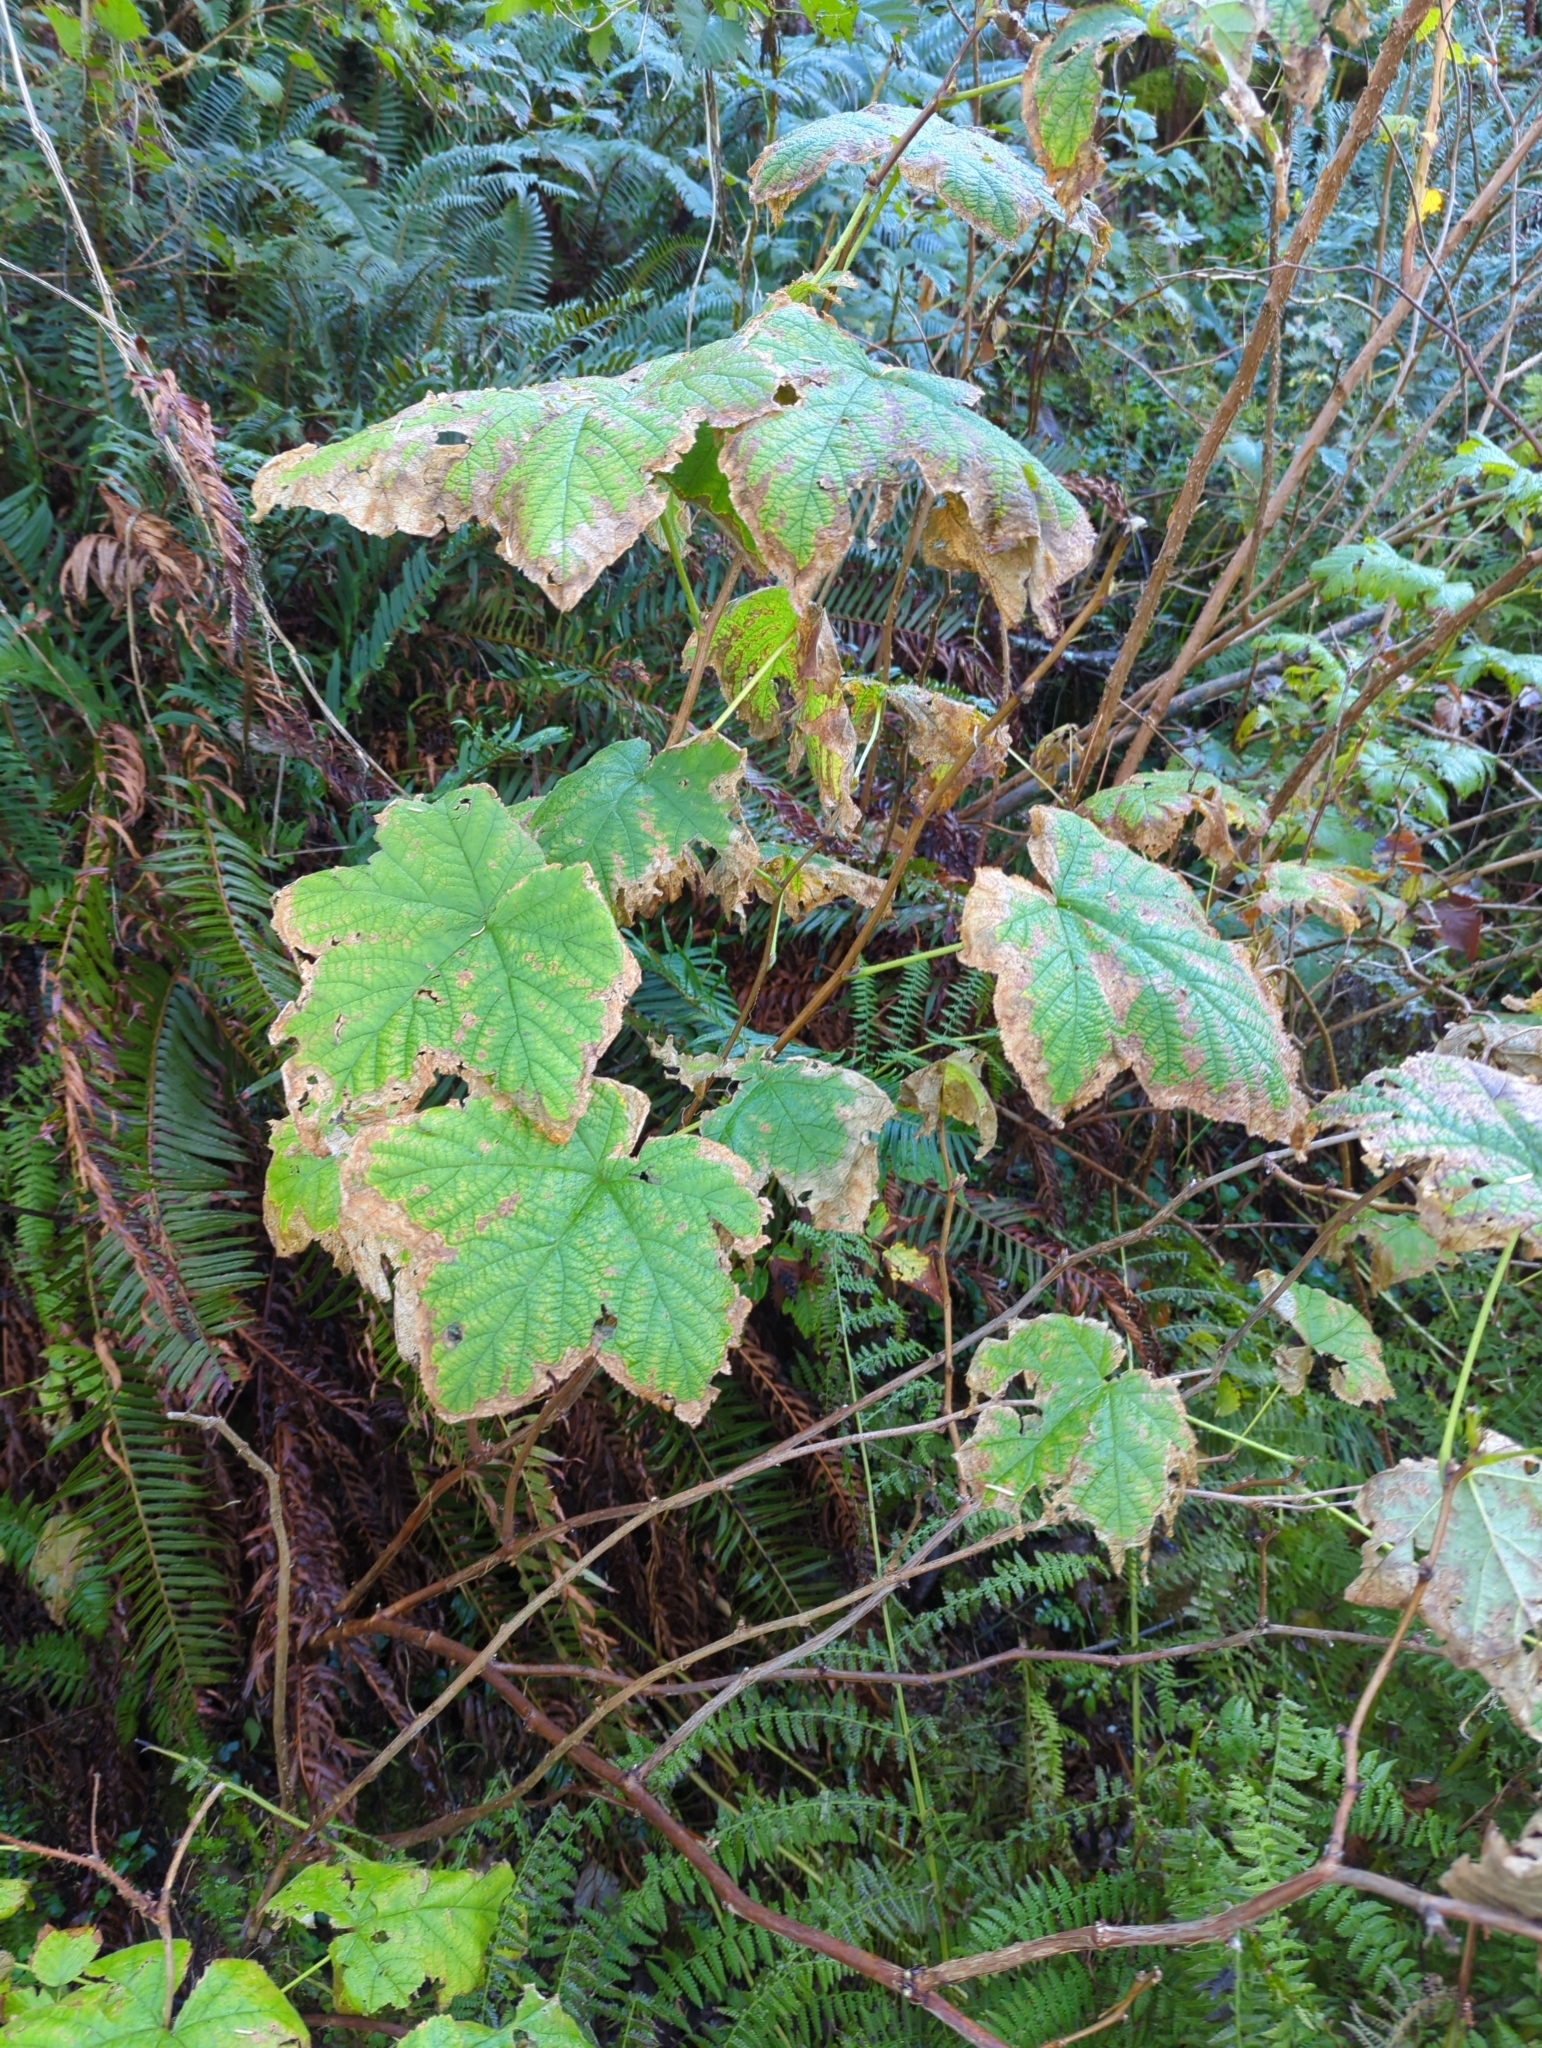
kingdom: Plantae
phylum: Tracheophyta
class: Magnoliopsida
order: Rosales
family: Rosaceae
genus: Rubus
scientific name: Rubus parviflorus
